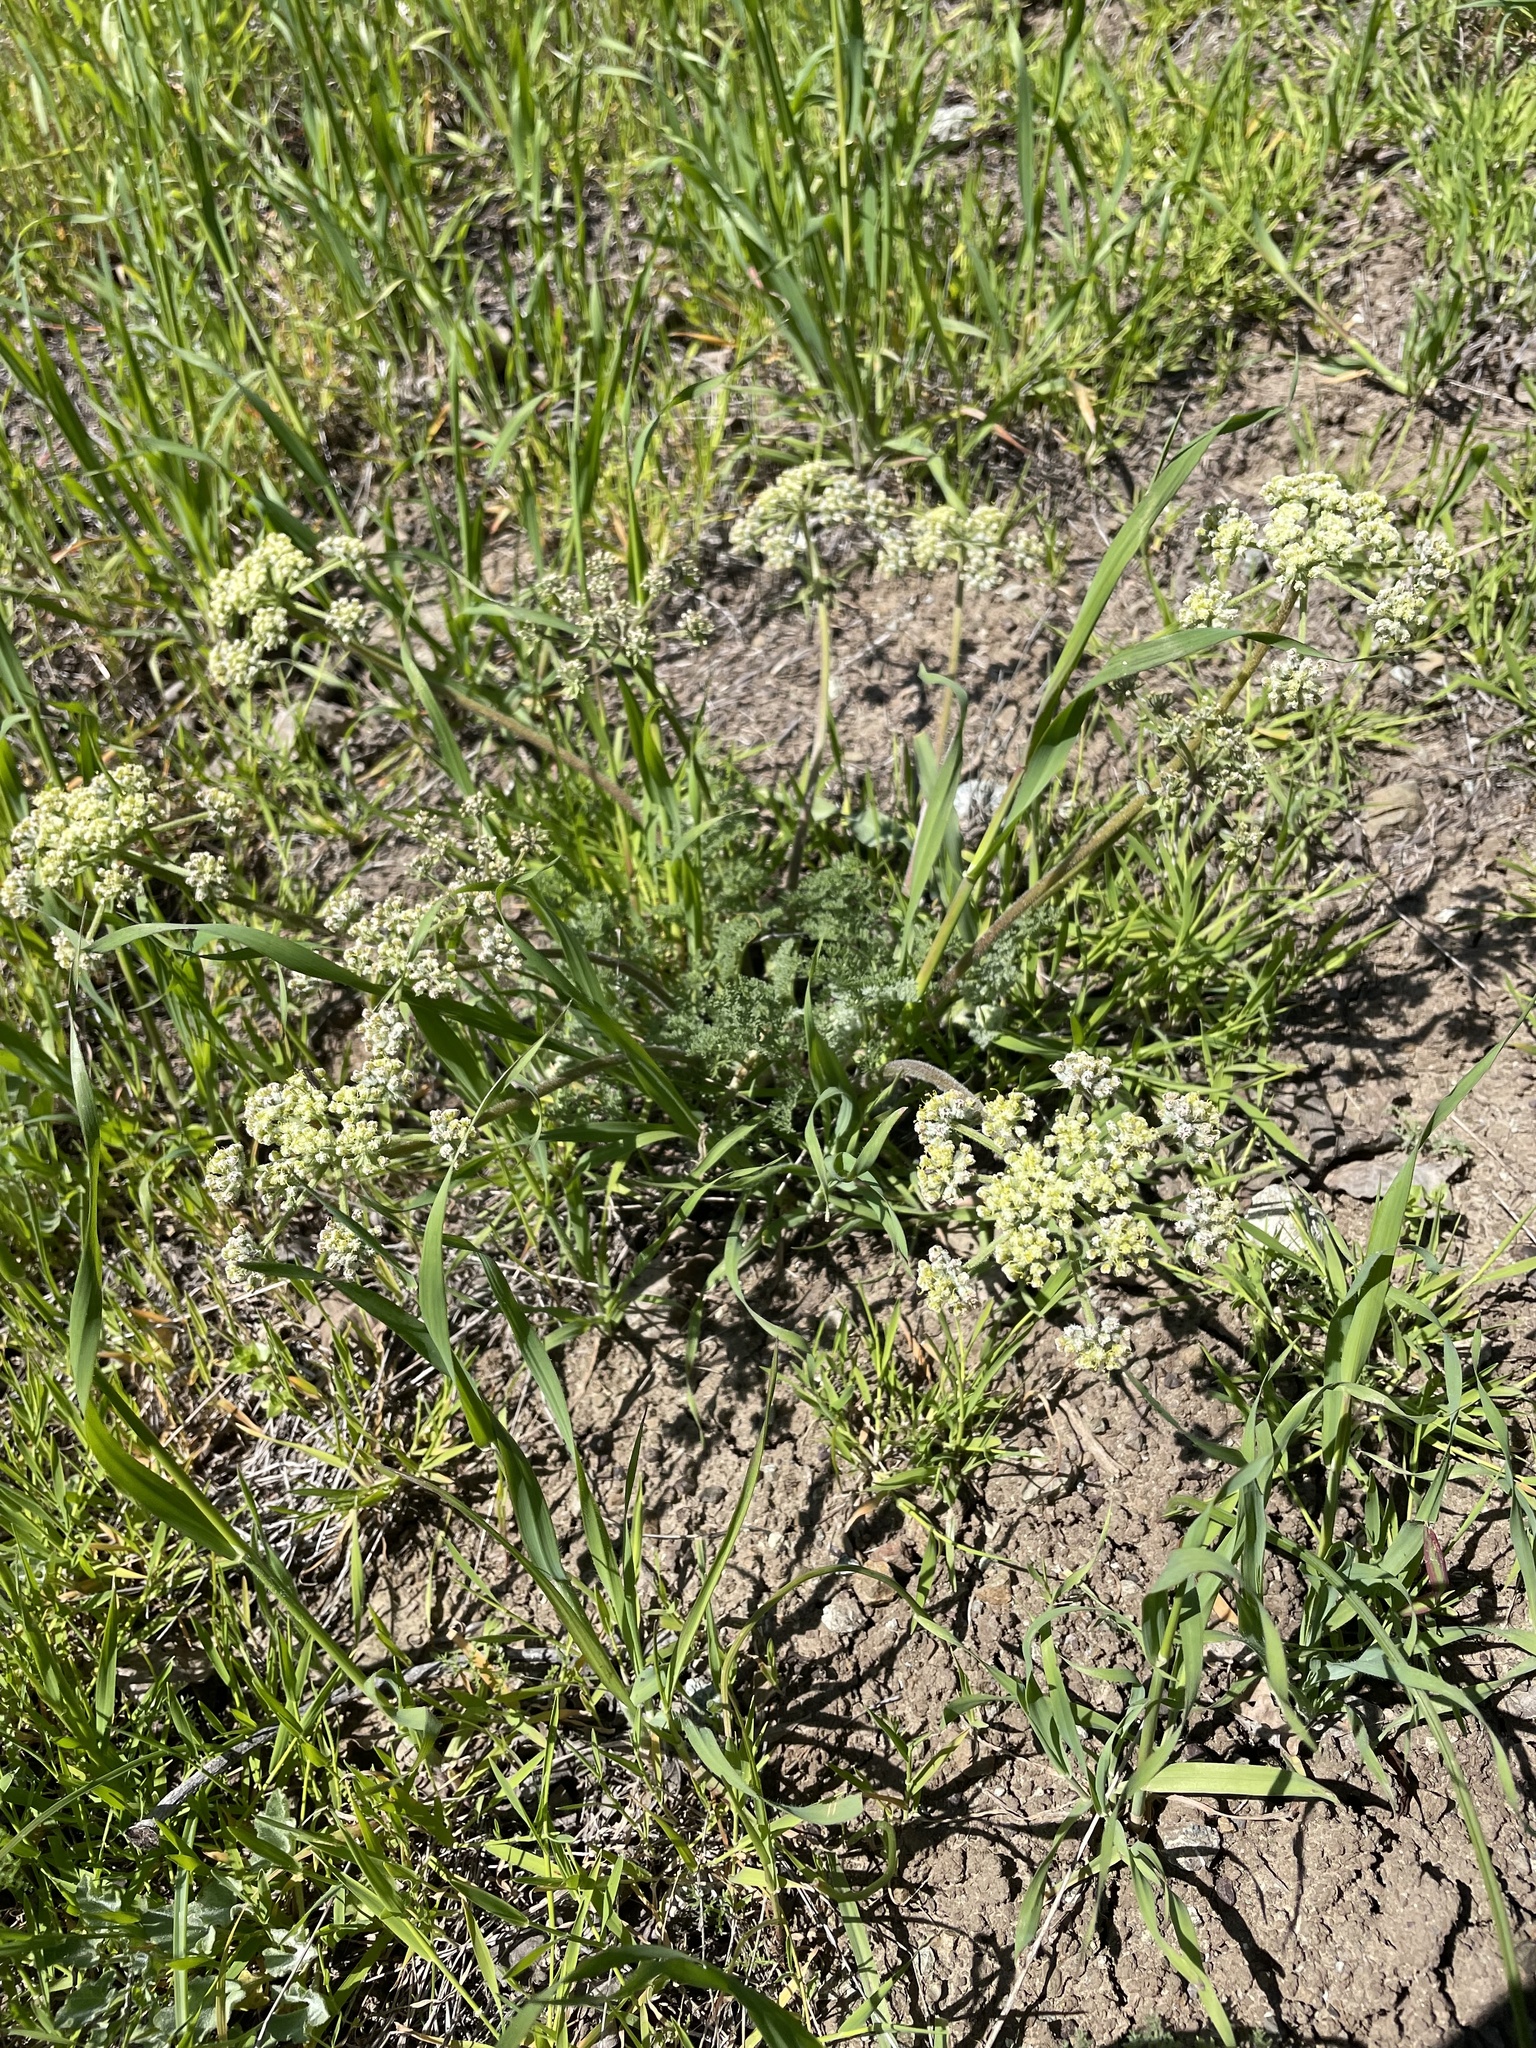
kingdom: Plantae
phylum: Tracheophyta
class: Magnoliopsida
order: Apiales
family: Apiaceae
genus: Lomatium
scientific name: Lomatium dasycarpum
